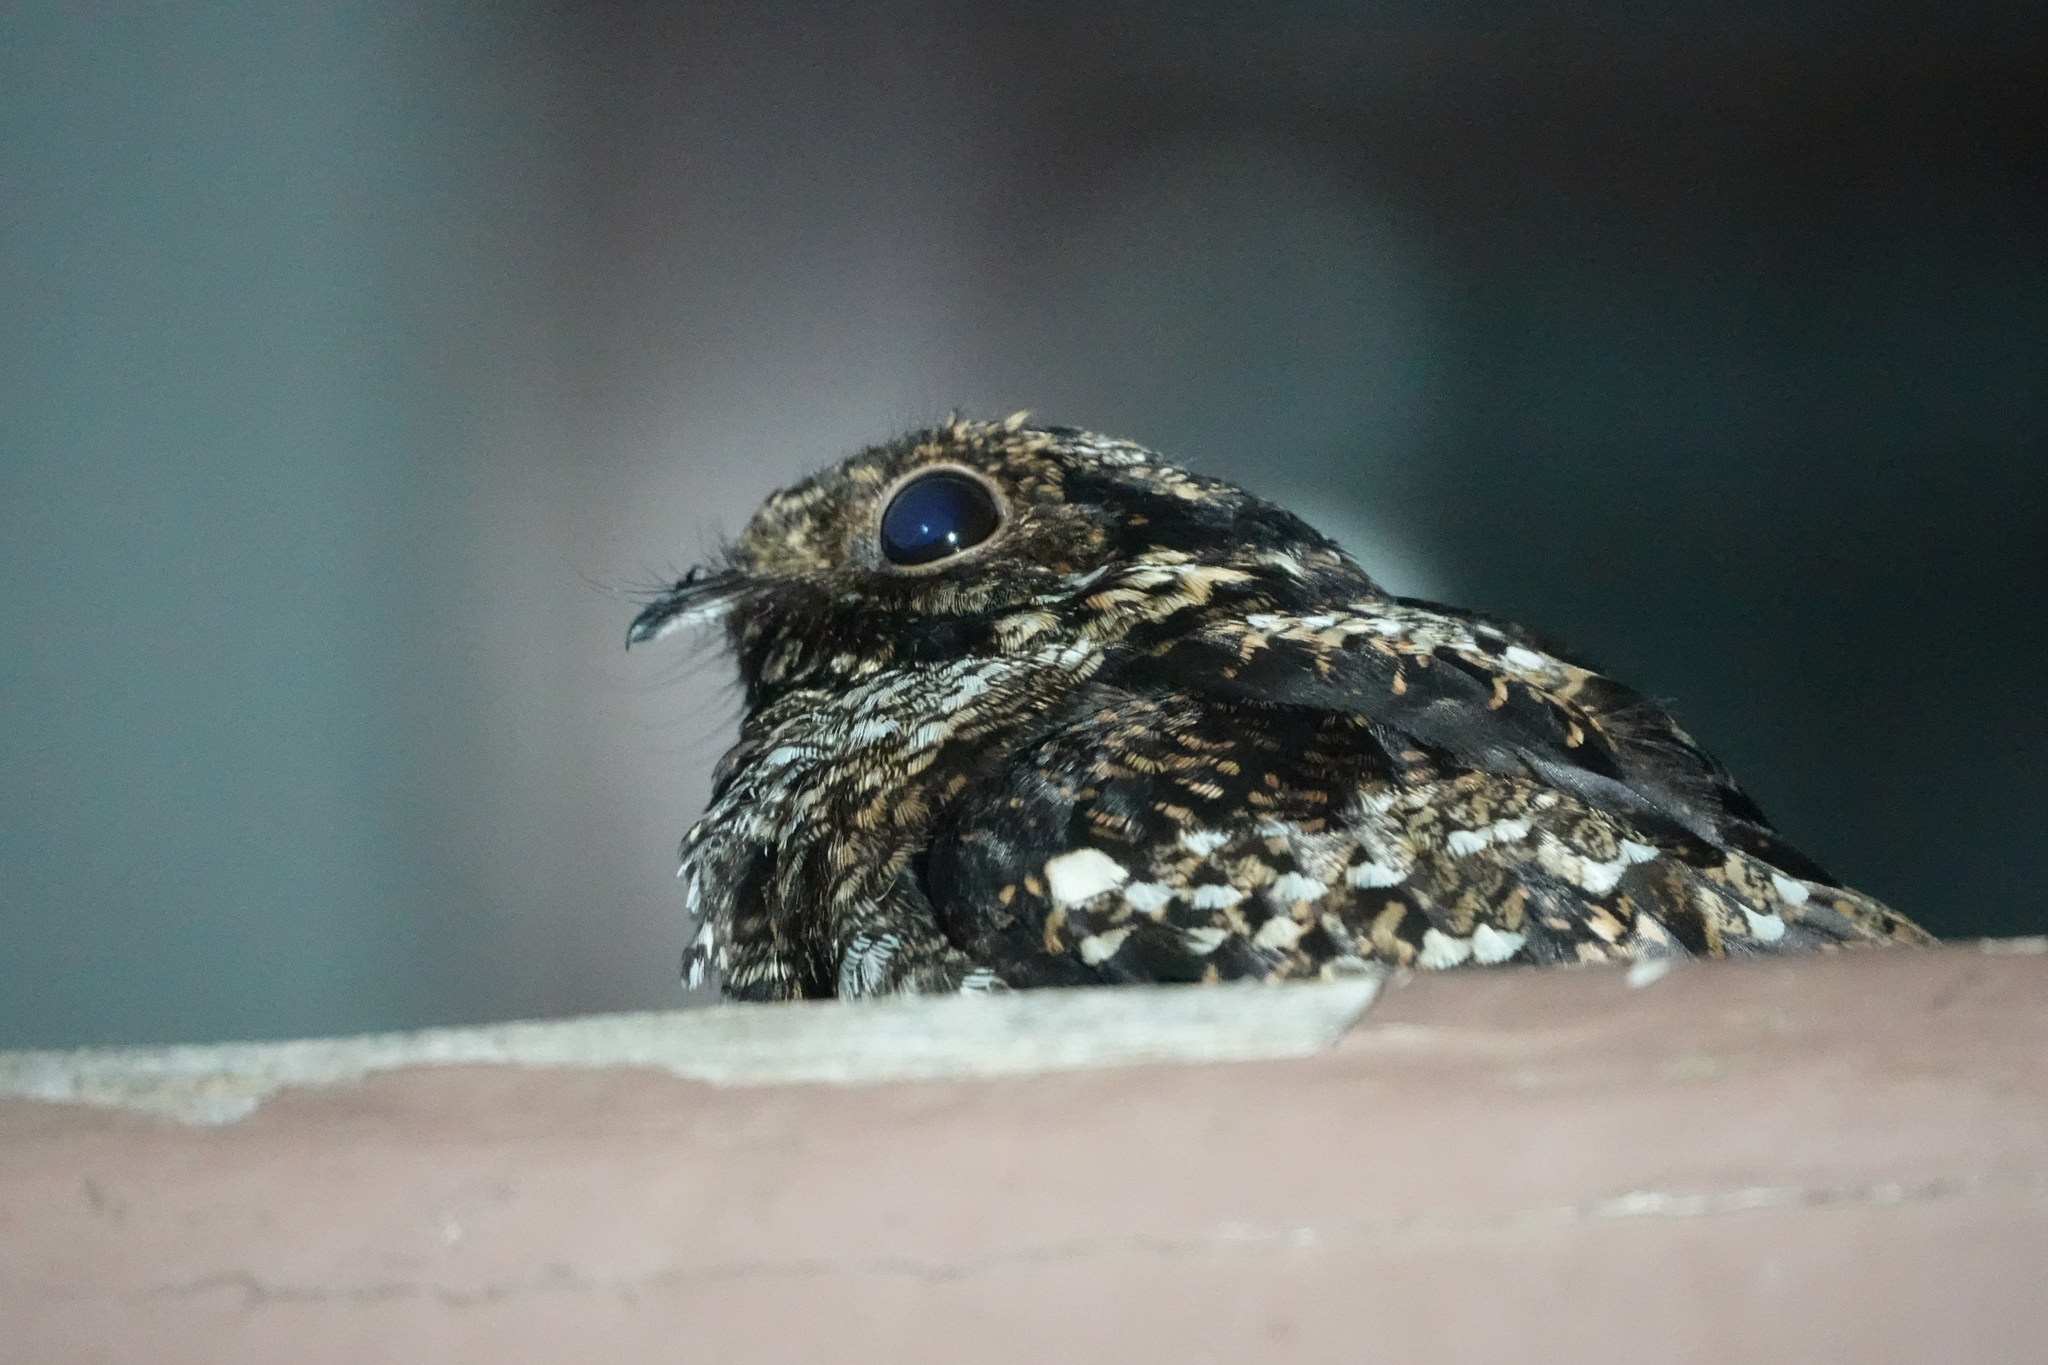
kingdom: Animalia
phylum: Chordata
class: Aves
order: Caprimulgiformes
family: Caprimulgidae
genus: Caprimulgus
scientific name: Caprimulgus pulchellus
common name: Salvadori's nightjar
